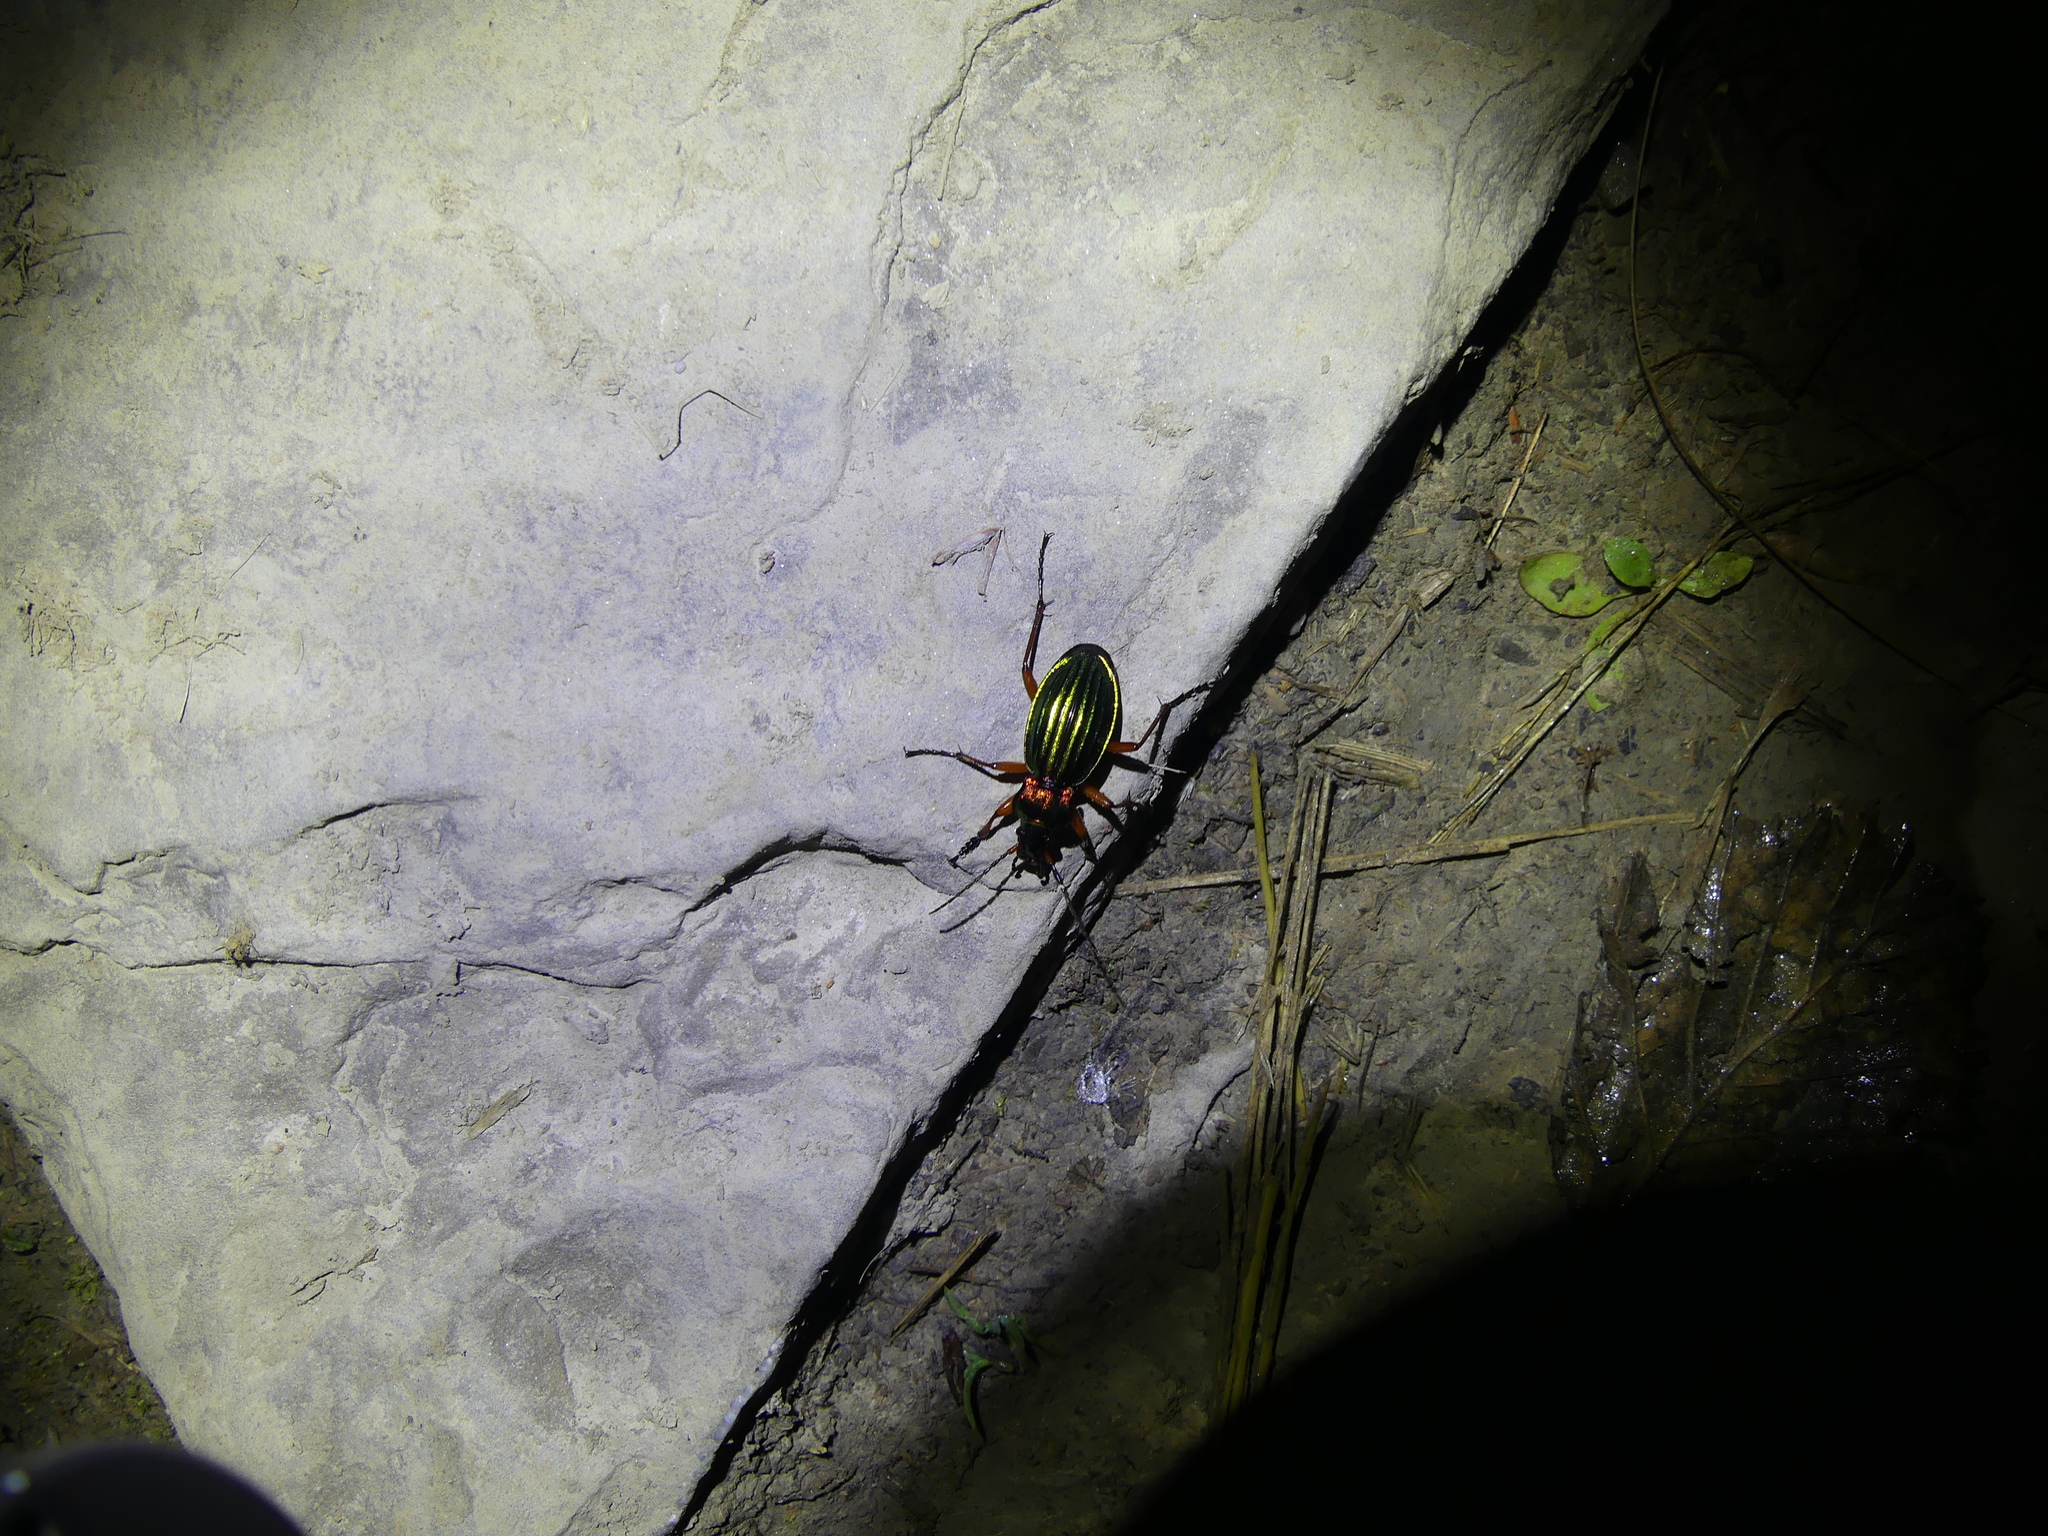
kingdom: Animalia
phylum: Arthropoda
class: Insecta
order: Coleoptera
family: Carabidae
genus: Carabus
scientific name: Carabus auronitens
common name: Carabus auronitens
